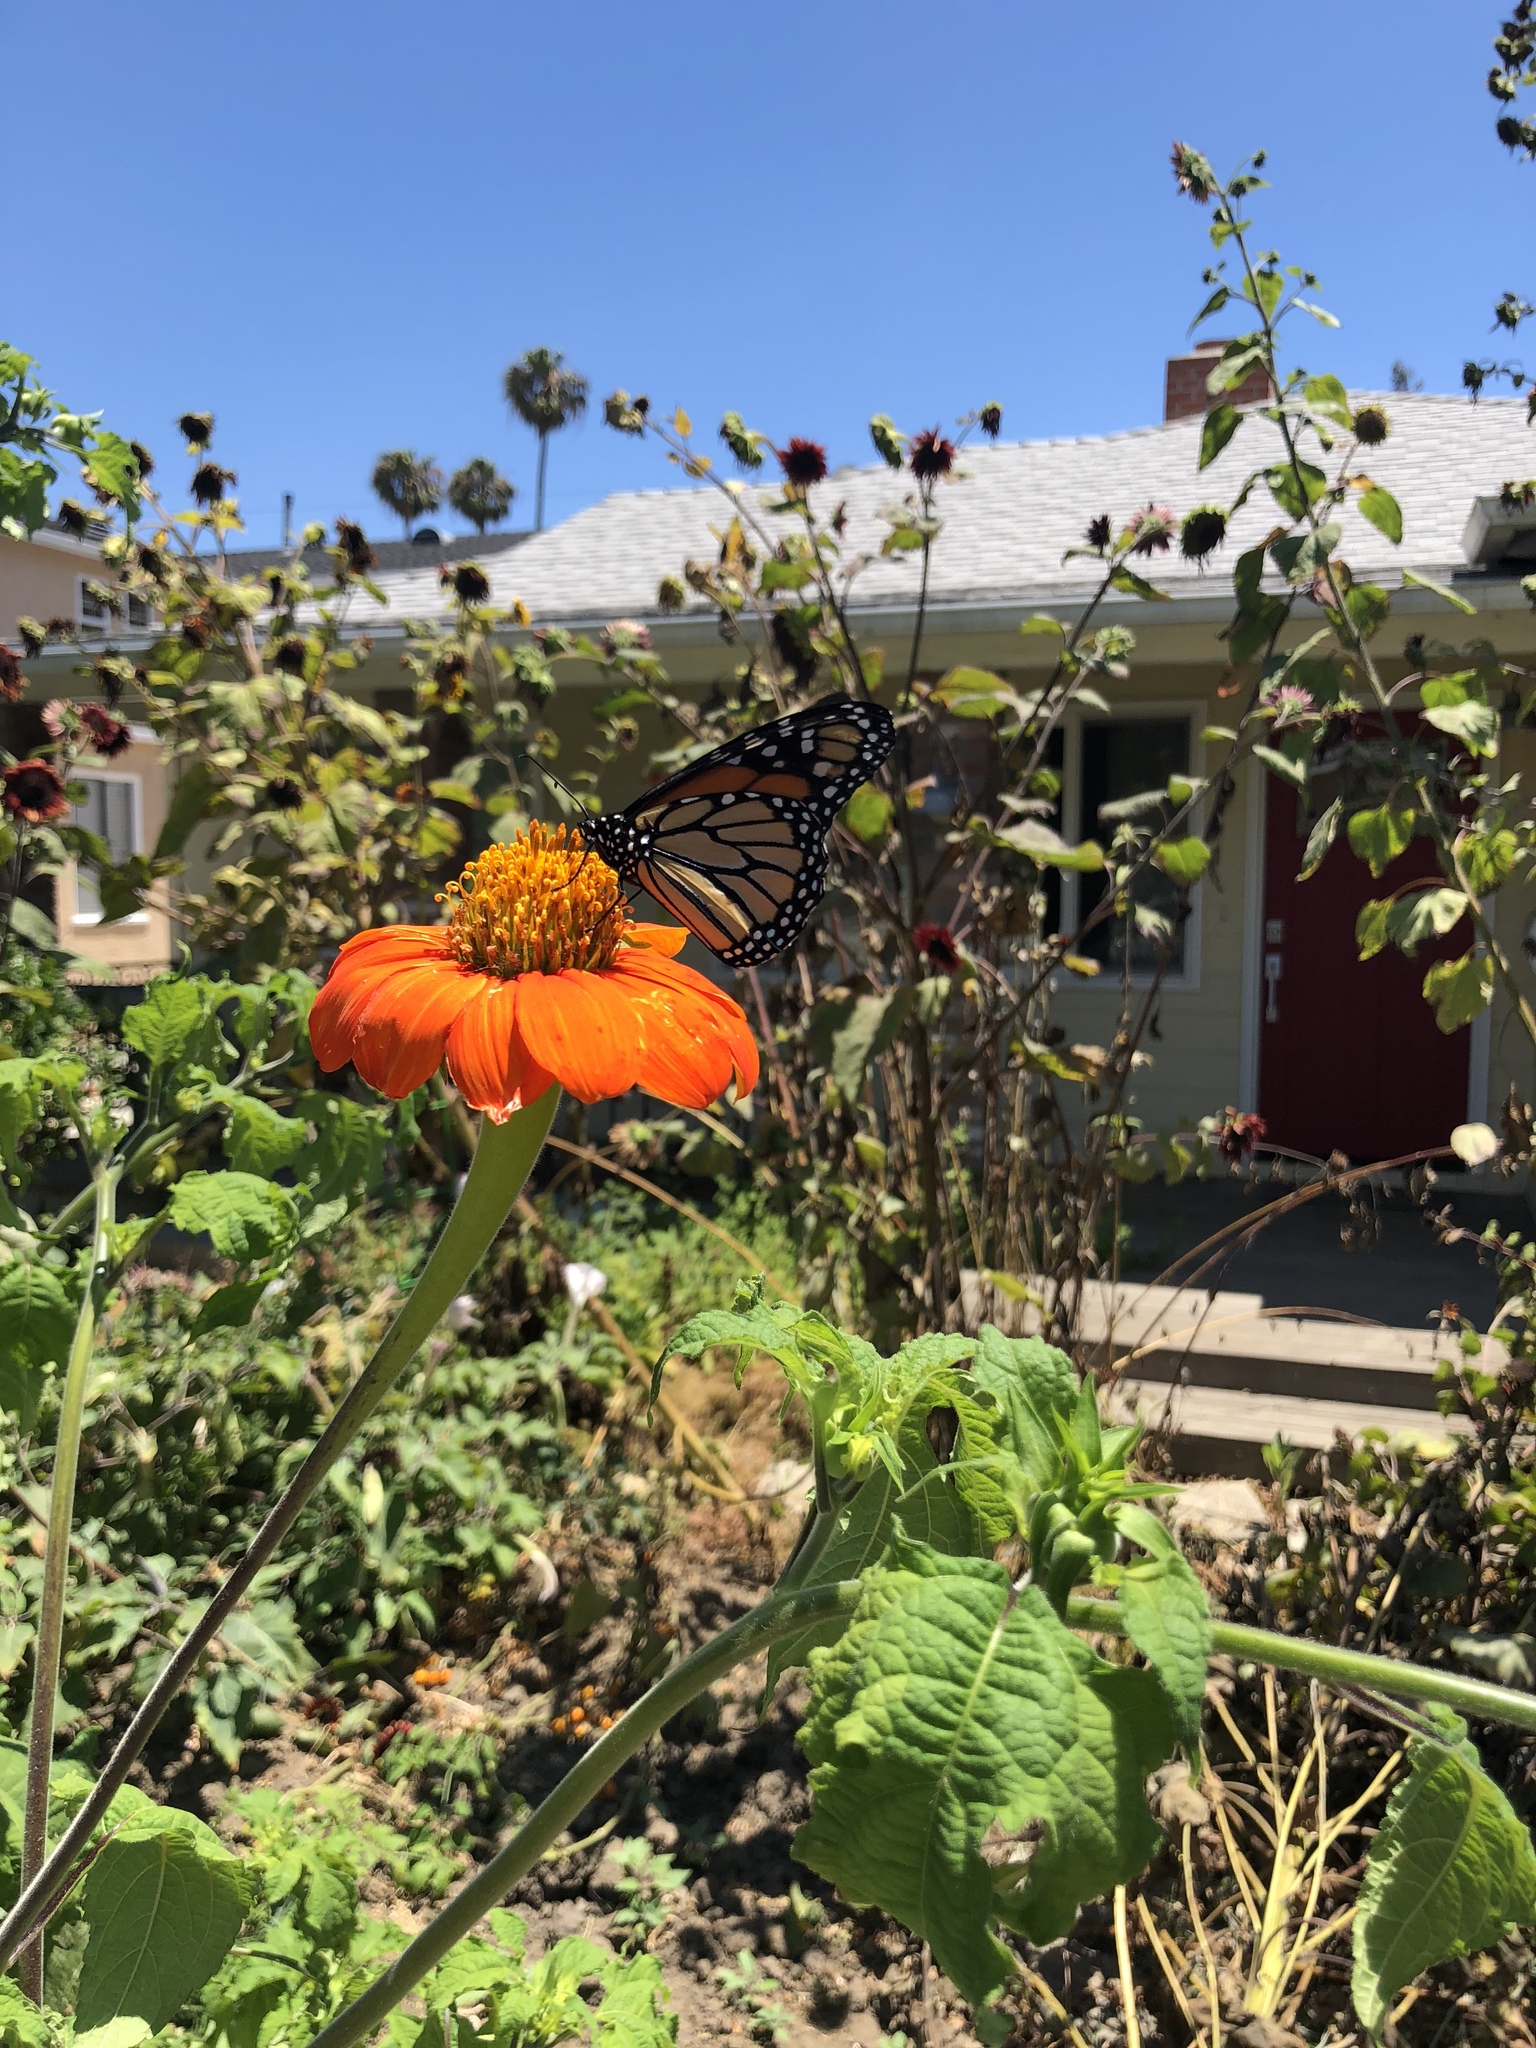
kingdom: Animalia
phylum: Arthropoda
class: Insecta
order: Lepidoptera
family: Nymphalidae
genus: Danaus
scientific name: Danaus plexippus
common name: Monarch
